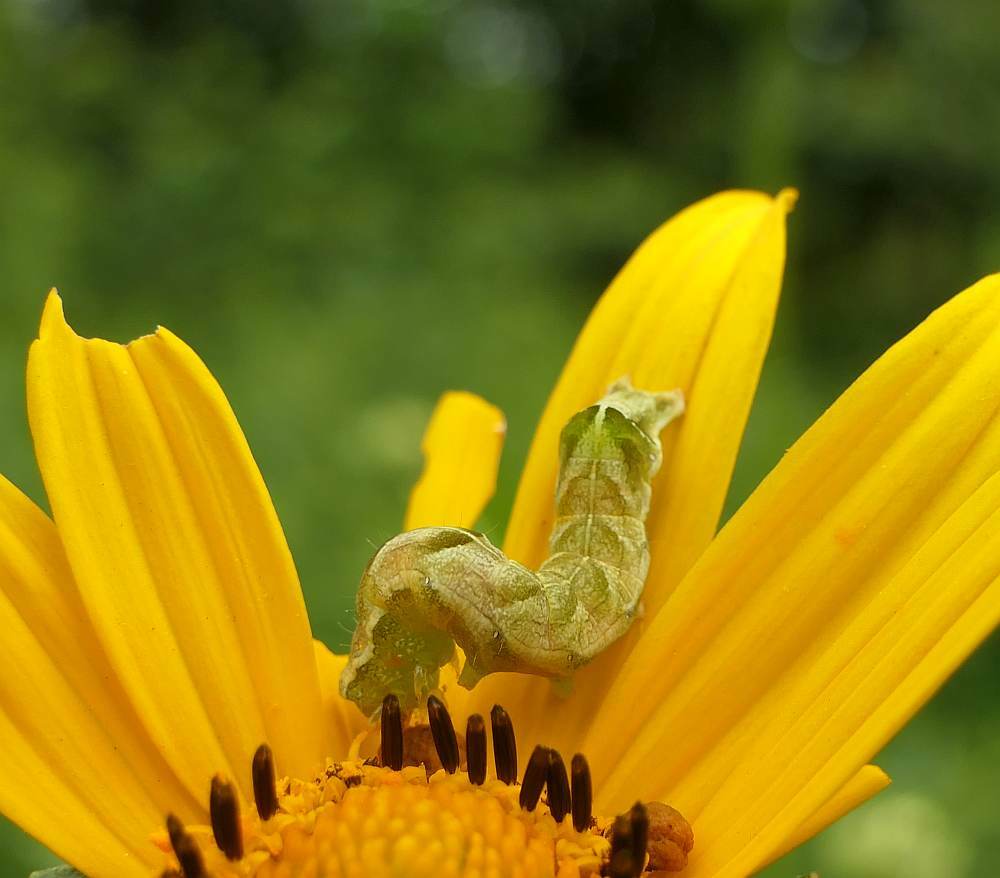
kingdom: Animalia
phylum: Arthropoda
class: Insecta
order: Lepidoptera
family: Noctuidae
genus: Melanchra
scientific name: Melanchra adjuncta
